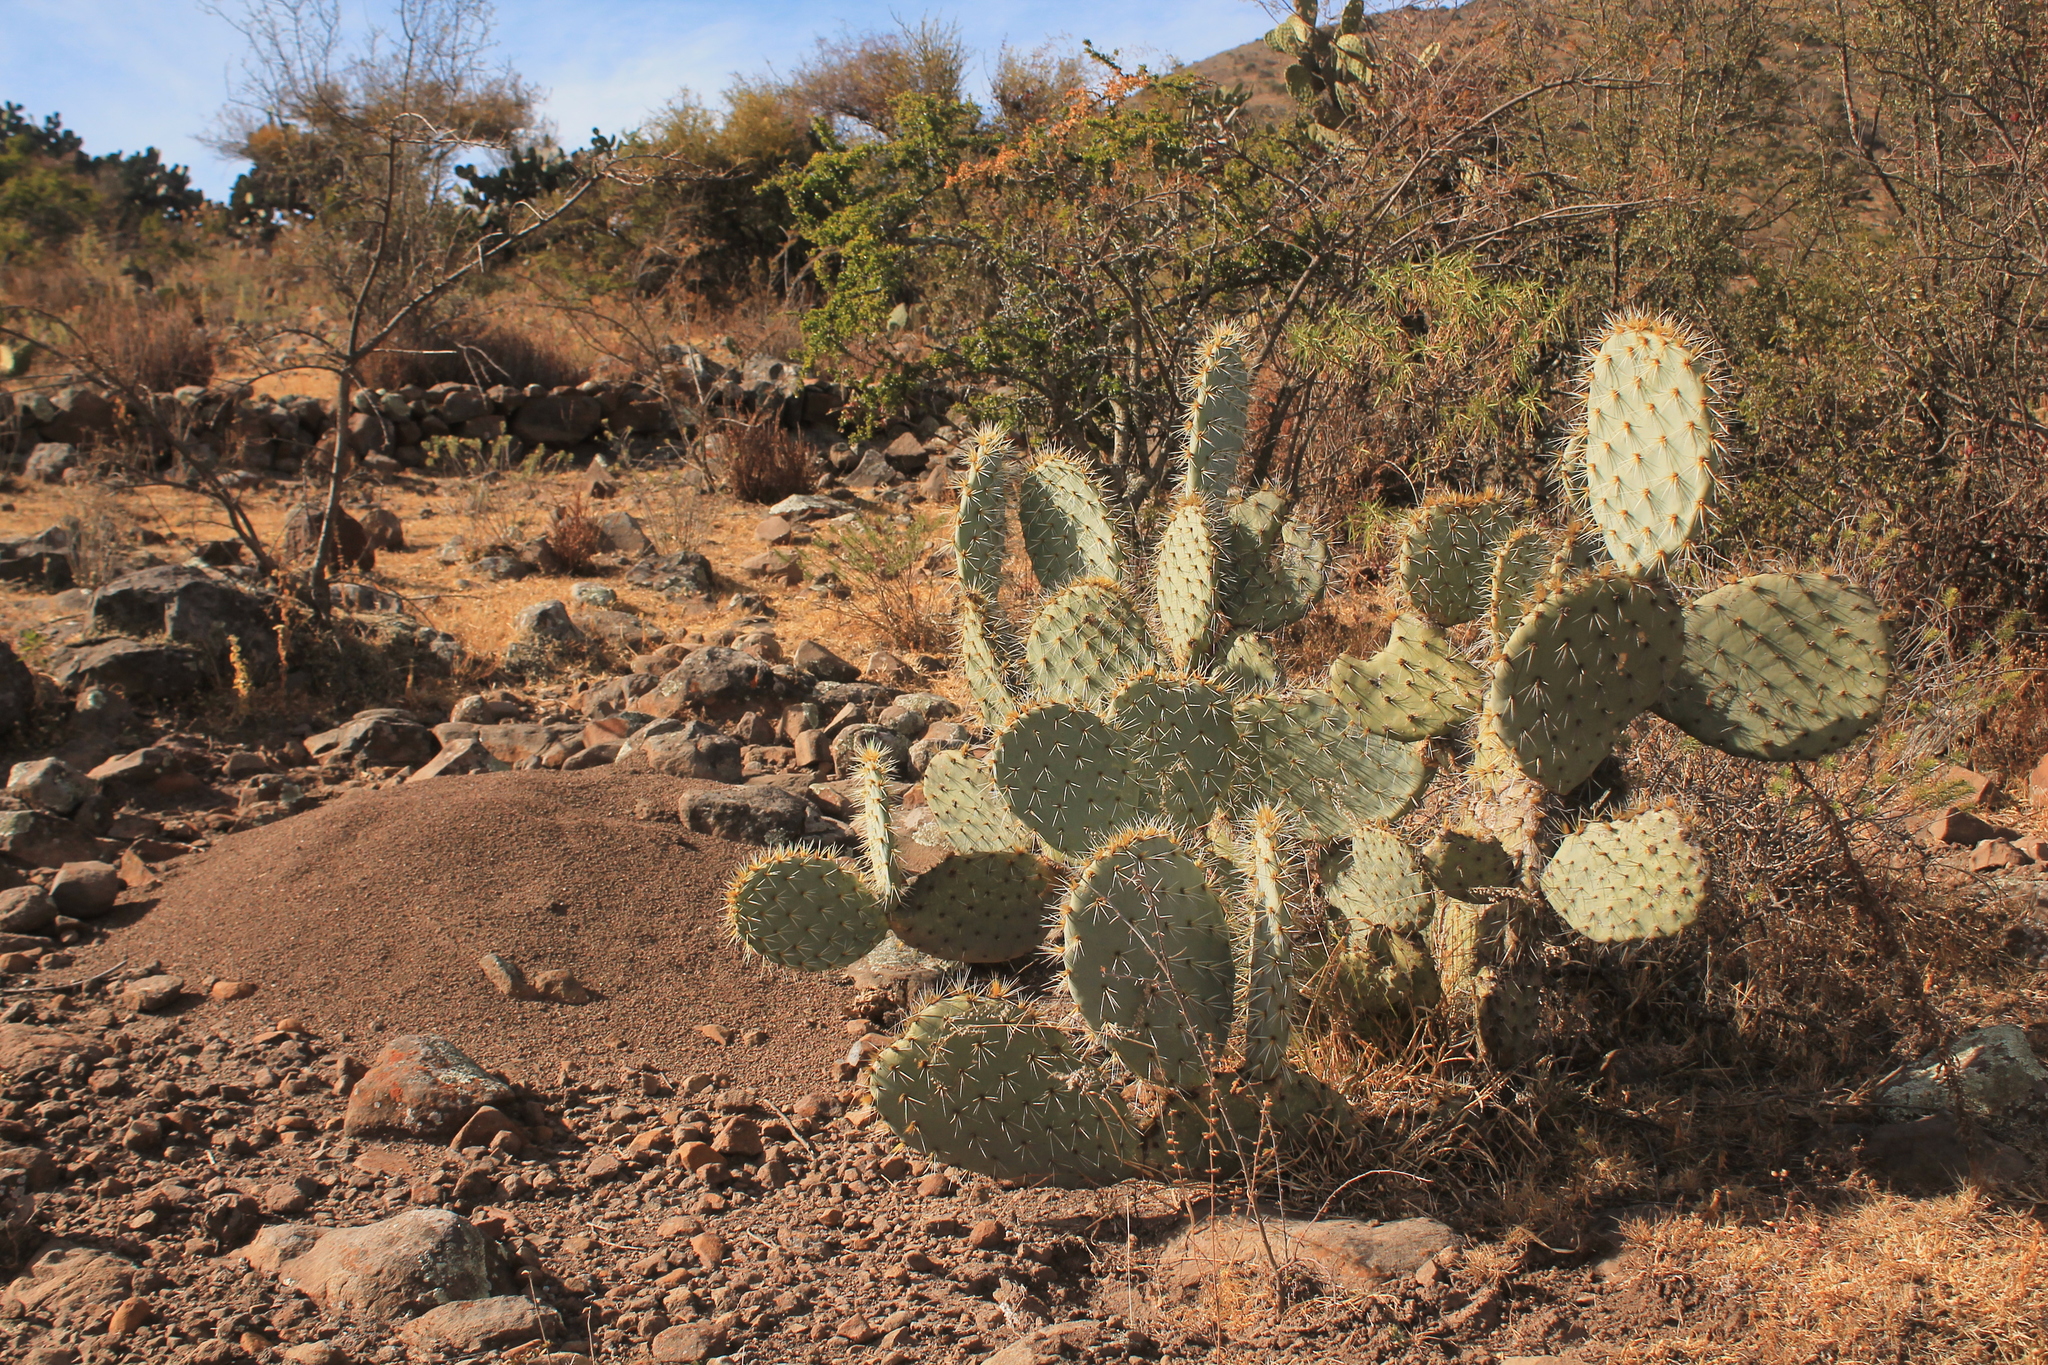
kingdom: Plantae
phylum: Tracheophyta
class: Magnoliopsida
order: Caryophyllales
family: Cactaceae
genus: Opuntia
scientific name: Opuntia robusta
